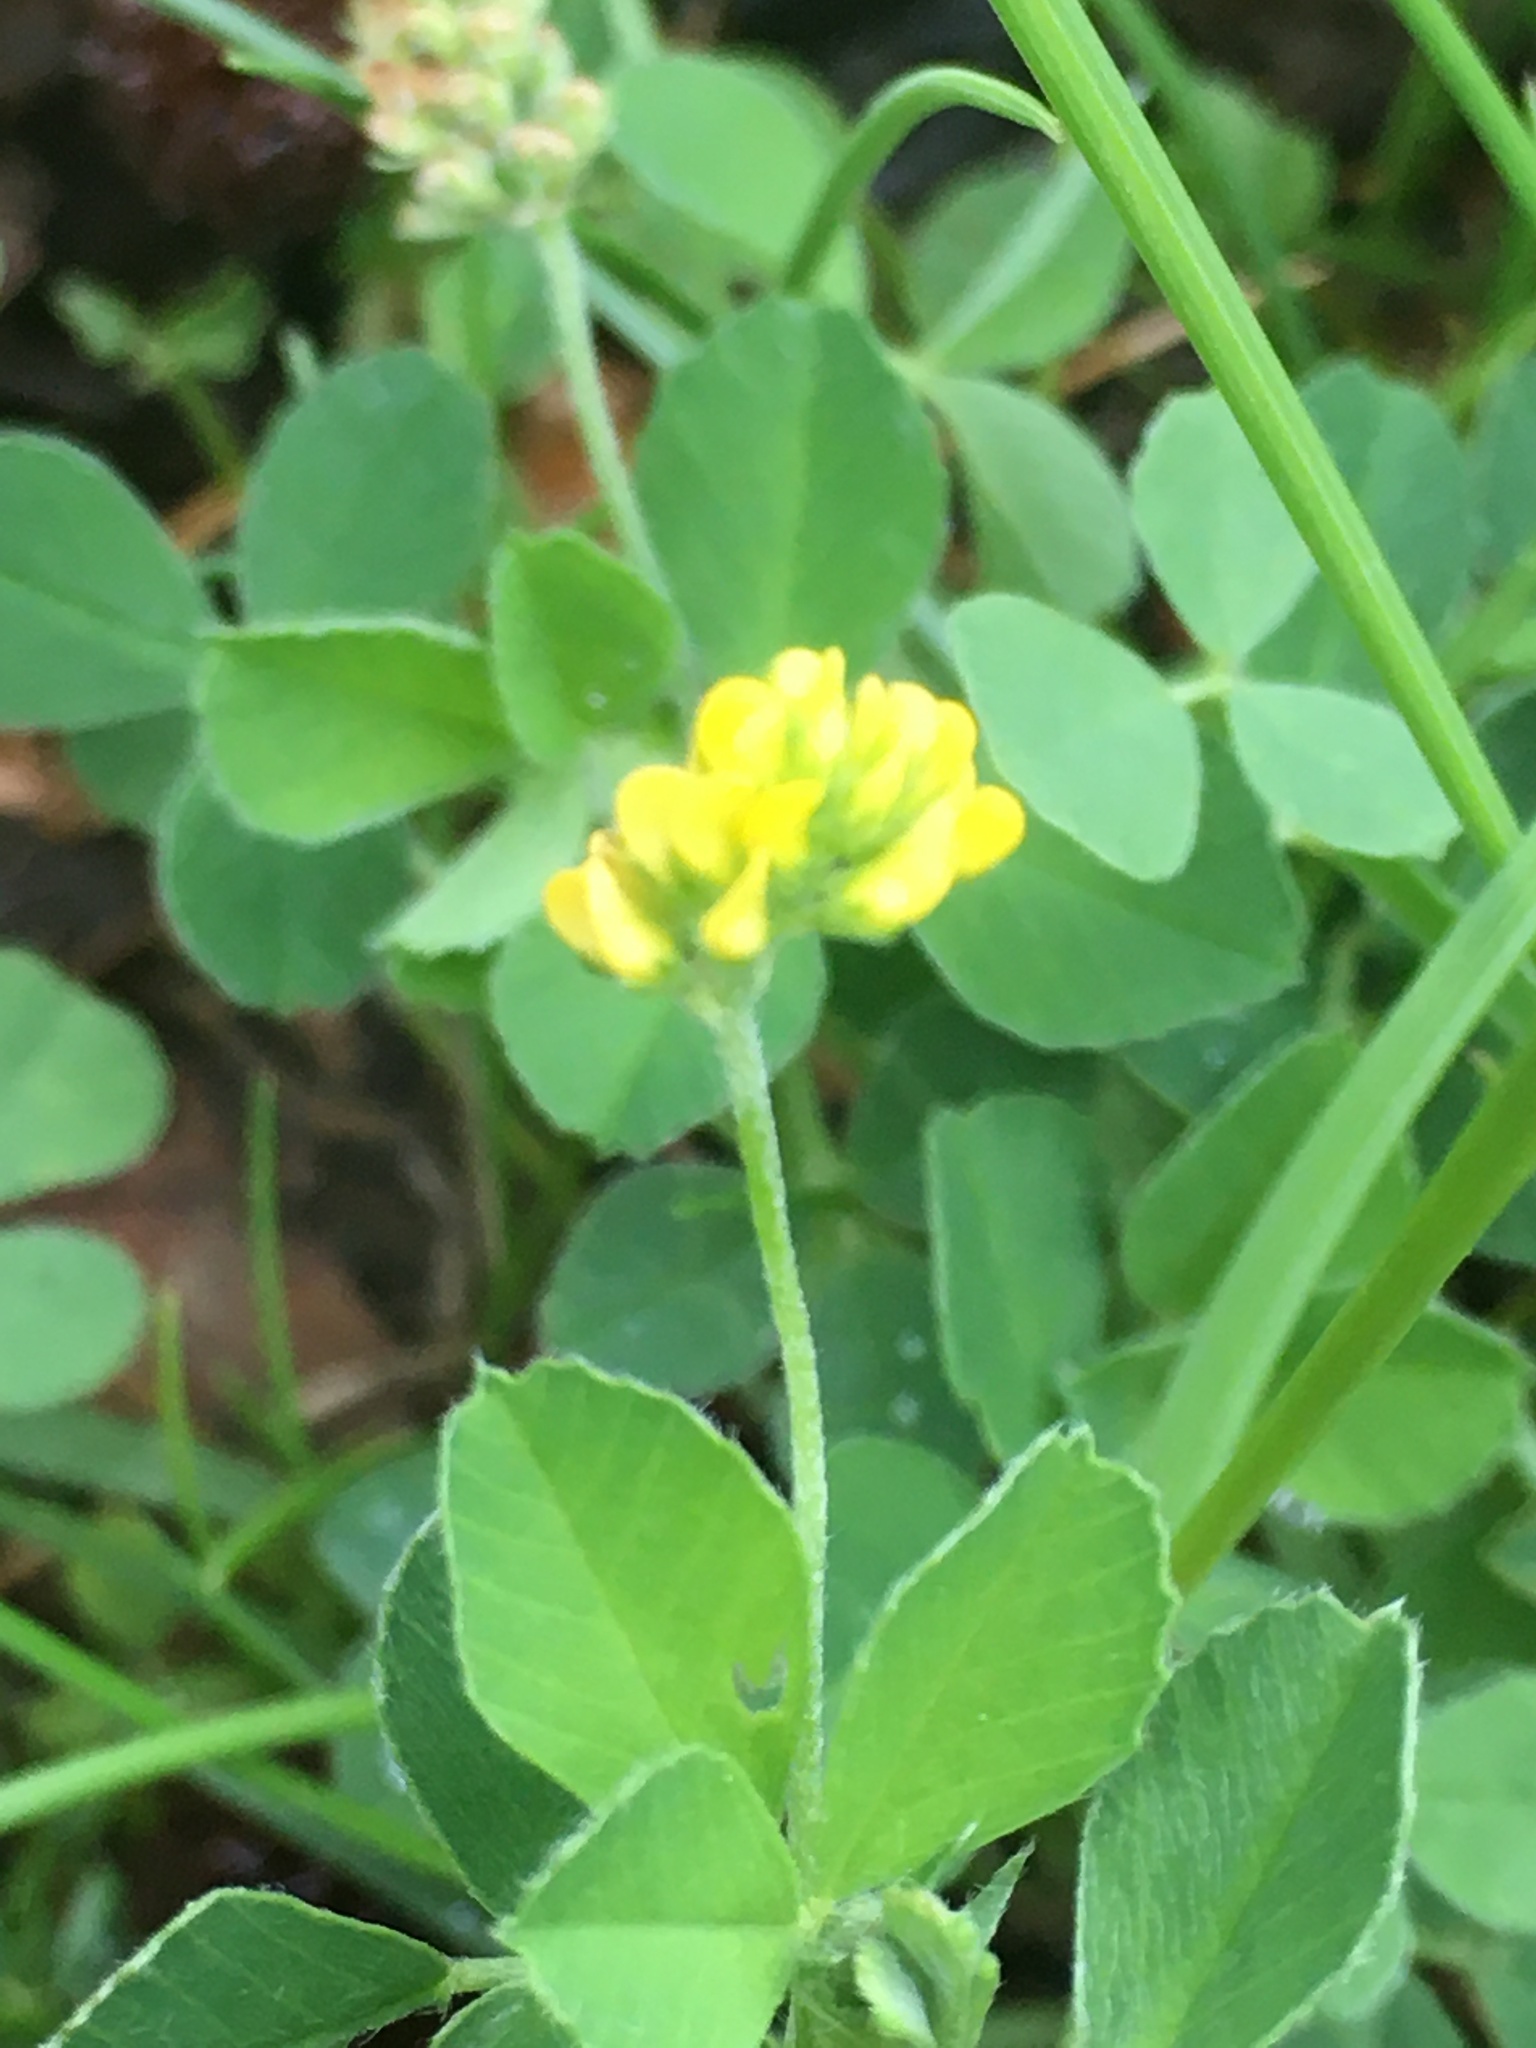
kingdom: Plantae
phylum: Tracheophyta
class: Magnoliopsida
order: Fabales
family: Fabaceae
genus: Medicago
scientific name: Medicago lupulina
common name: Black medick
